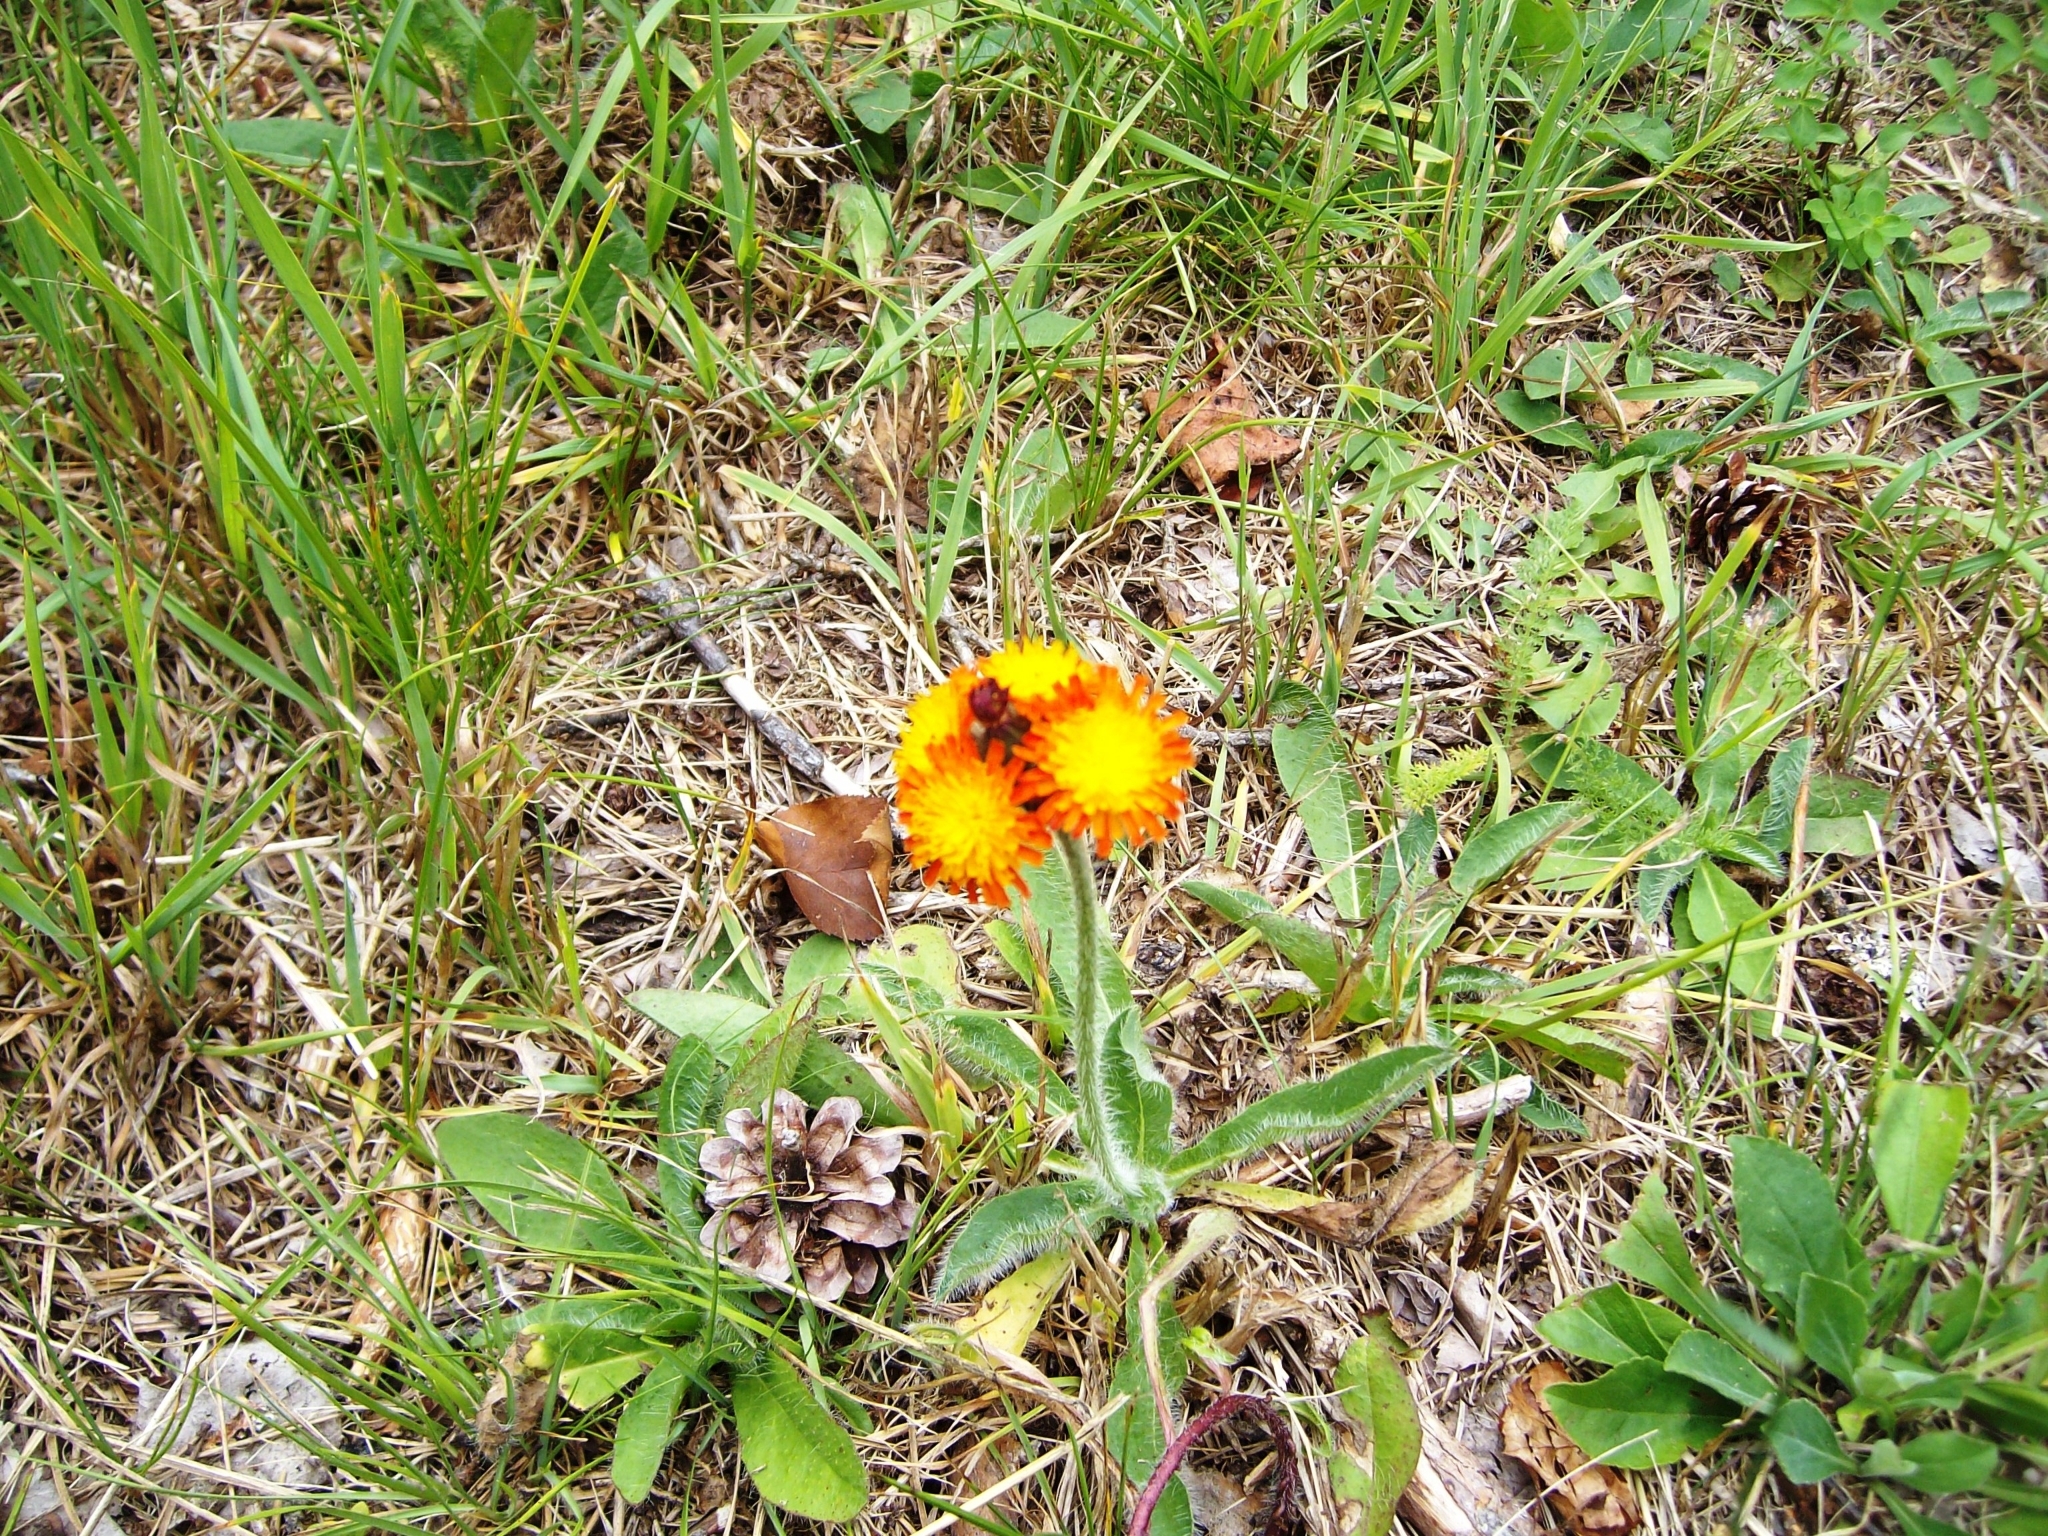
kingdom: Plantae
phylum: Tracheophyta
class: Magnoliopsida
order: Asterales
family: Asteraceae
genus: Pilosella
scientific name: Pilosella aurantiaca
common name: Fox-and-cubs
